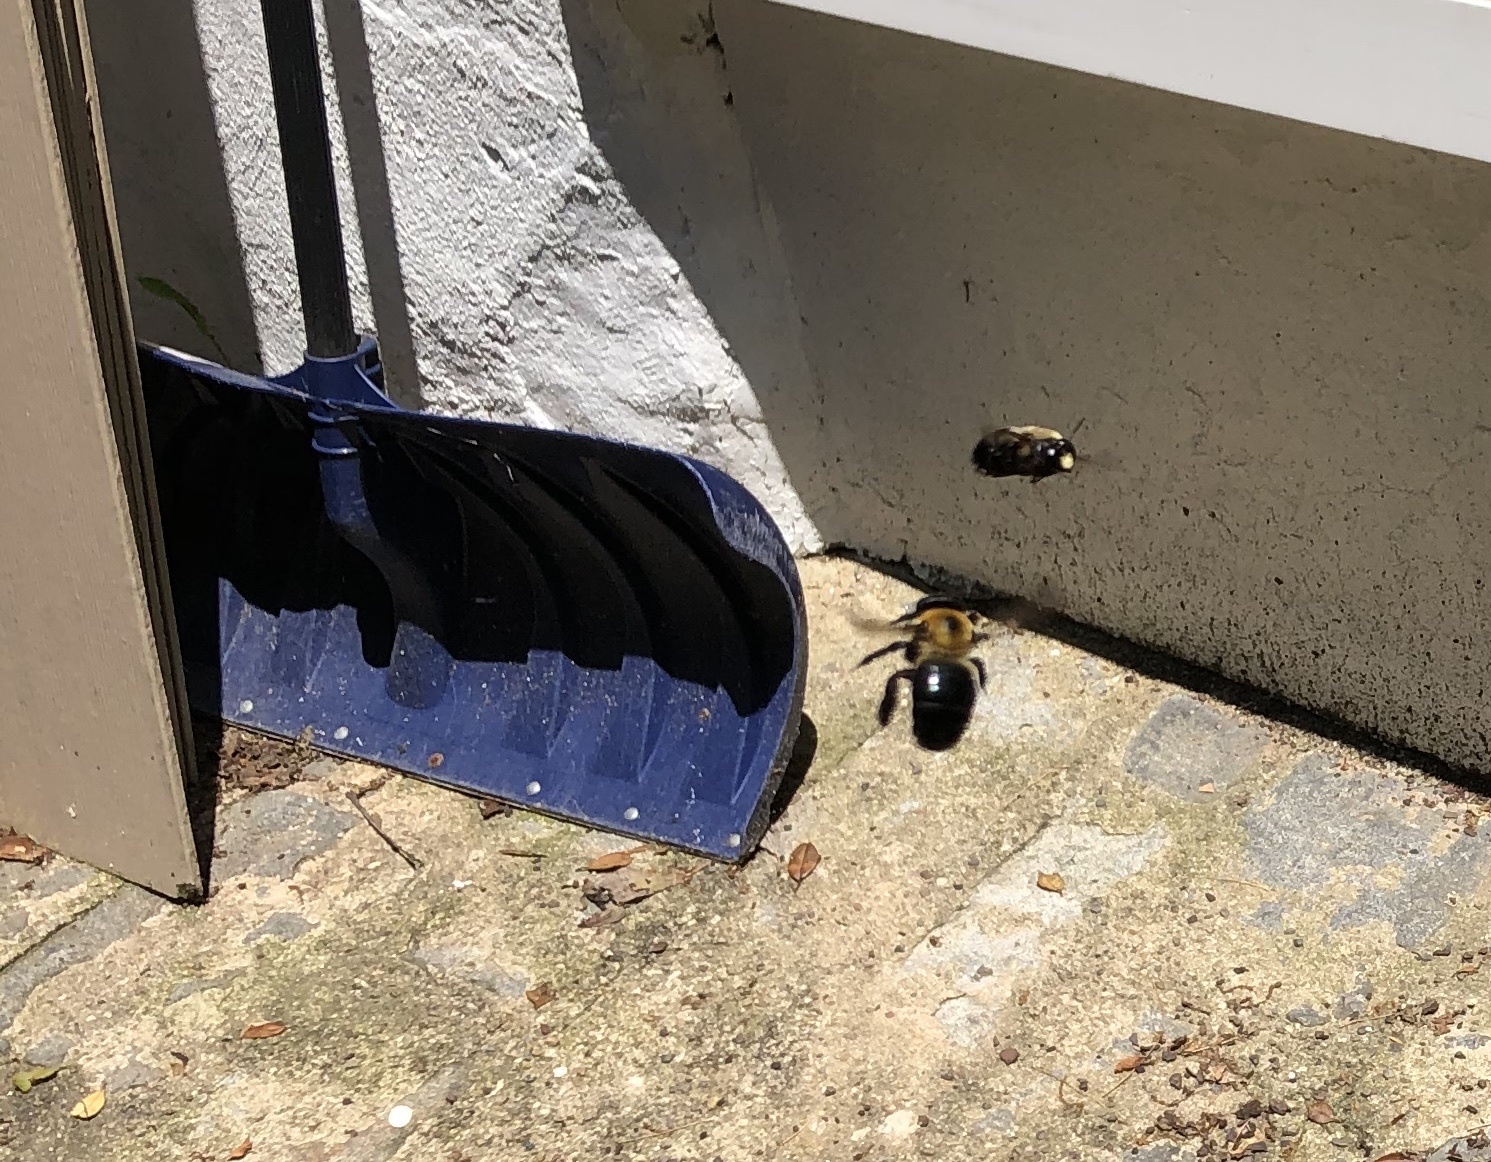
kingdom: Animalia
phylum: Arthropoda
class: Insecta
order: Hymenoptera
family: Apidae
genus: Xylocopa
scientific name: Xylocopa virginica
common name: Carpenter bee
